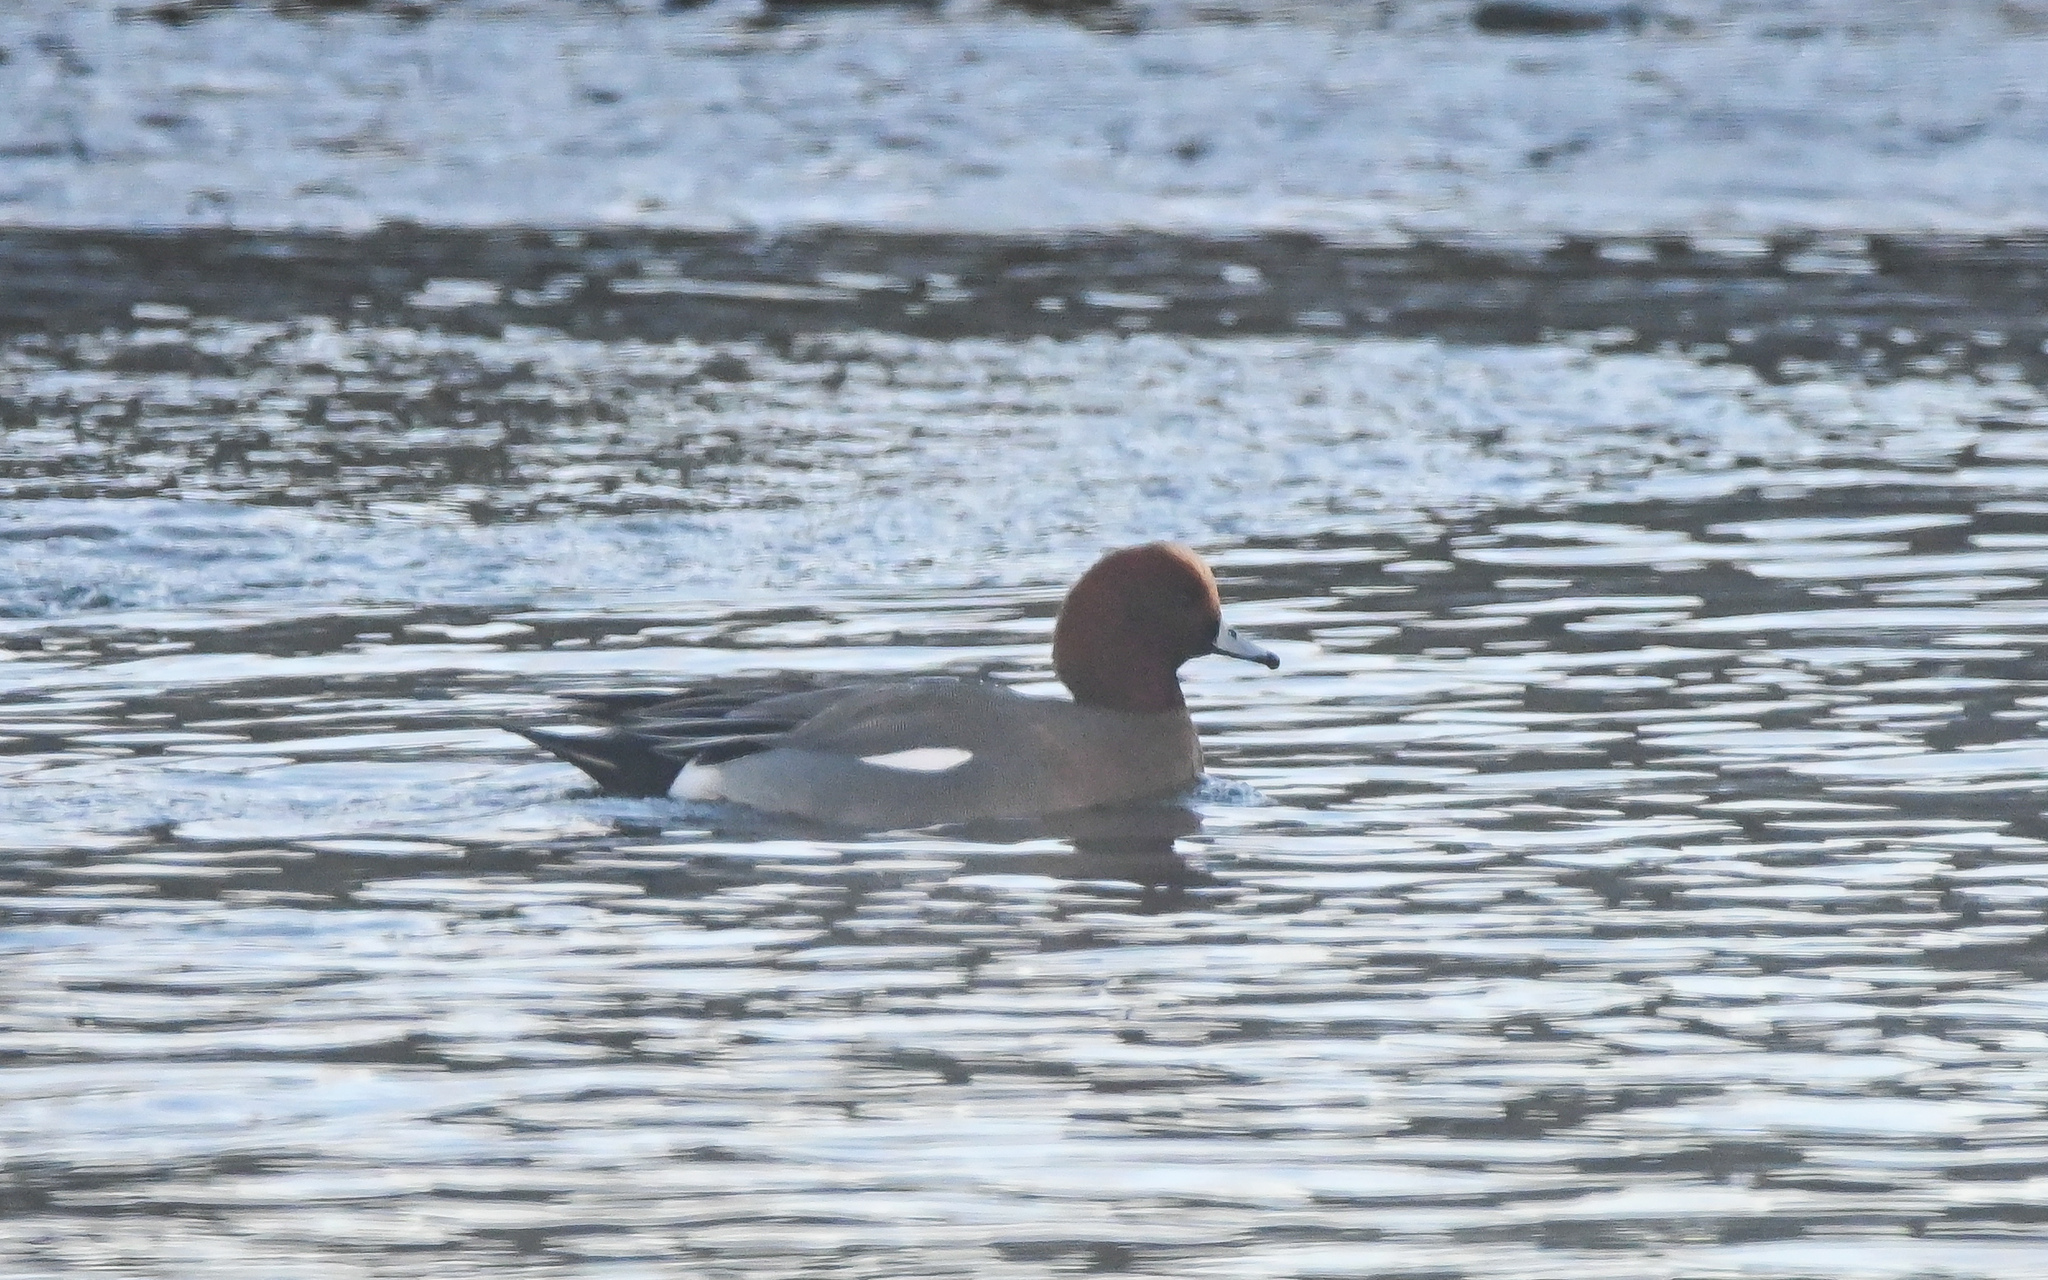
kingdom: Animalia
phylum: Chordata
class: Aves
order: Anseriformes
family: Anatidae
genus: Mareca
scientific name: Mareca penelope
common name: Eurasian wigeon
